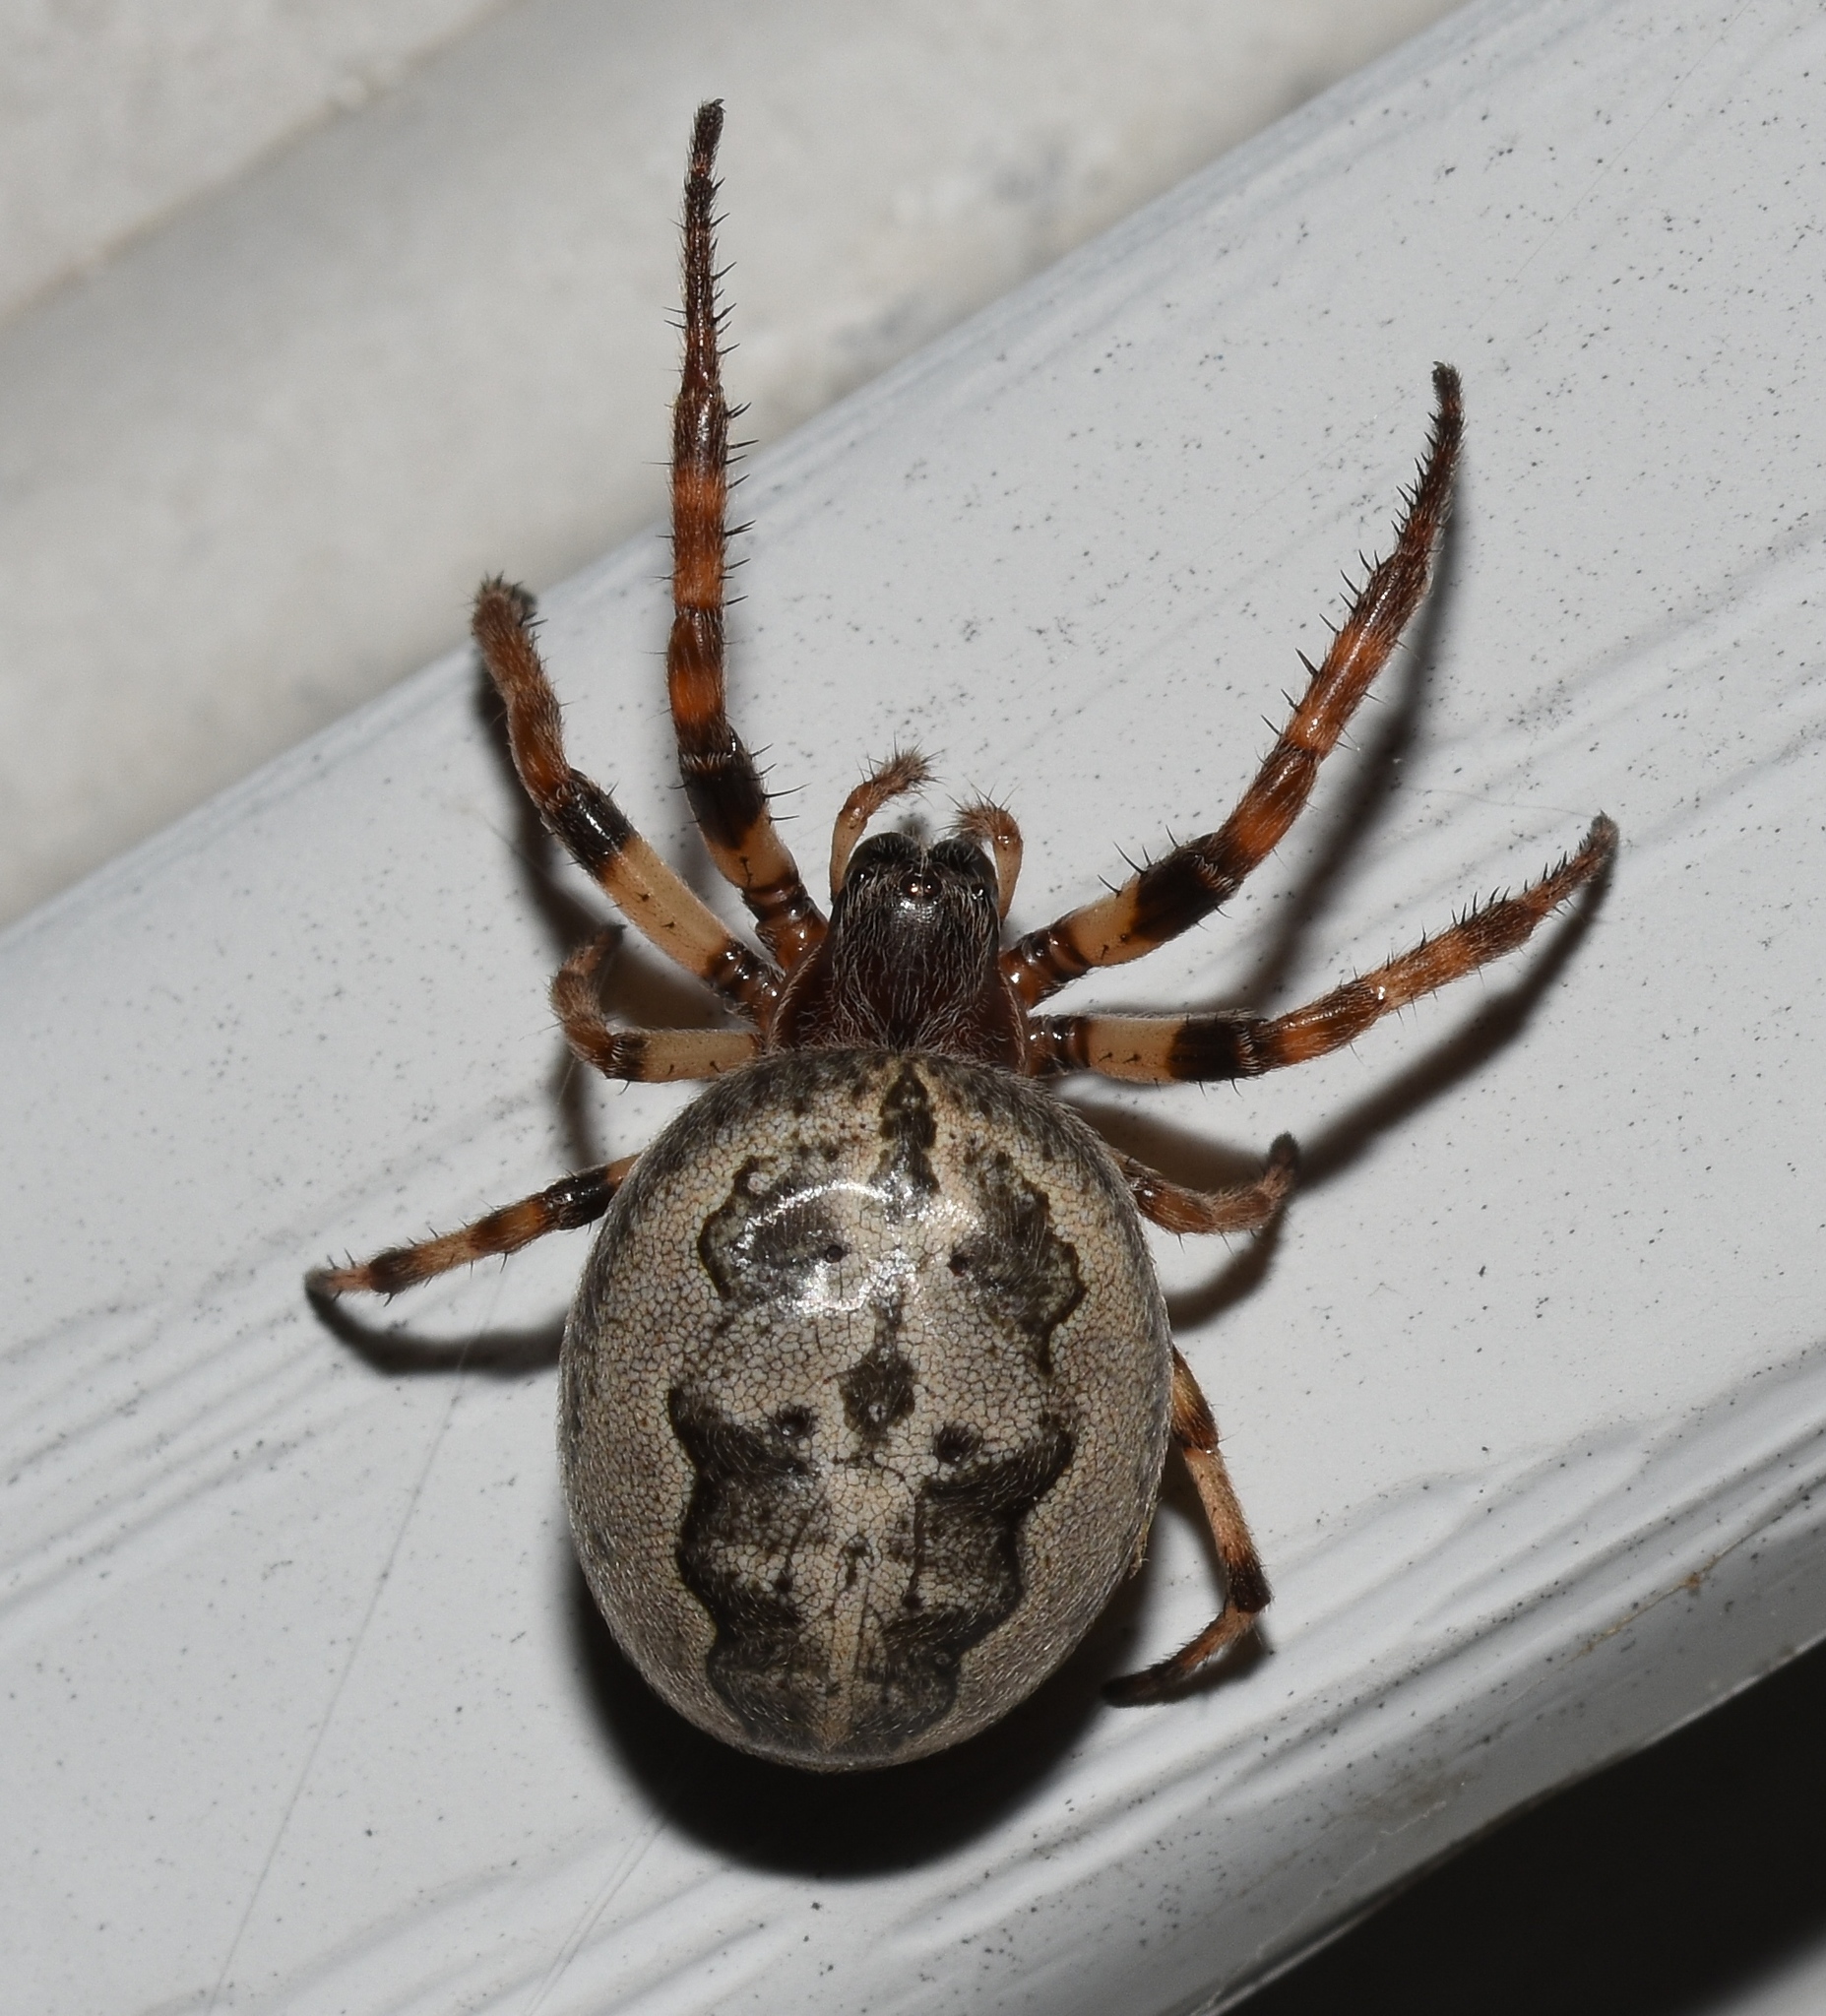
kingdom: Animalia
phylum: Arthropoda
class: Arachnida
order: Araneae
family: Araneidae
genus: Larinioides
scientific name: Larinioides cornutus
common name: Furrow orbweaver
